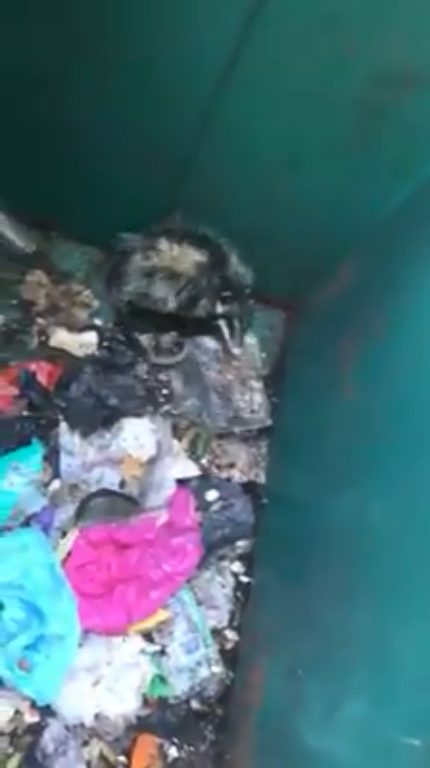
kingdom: Animalia
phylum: Chordata
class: Mammalia
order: Didelphimorphia
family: Didelphidae
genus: Didelphis
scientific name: Didelphis virginiana
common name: Virginia opossum
